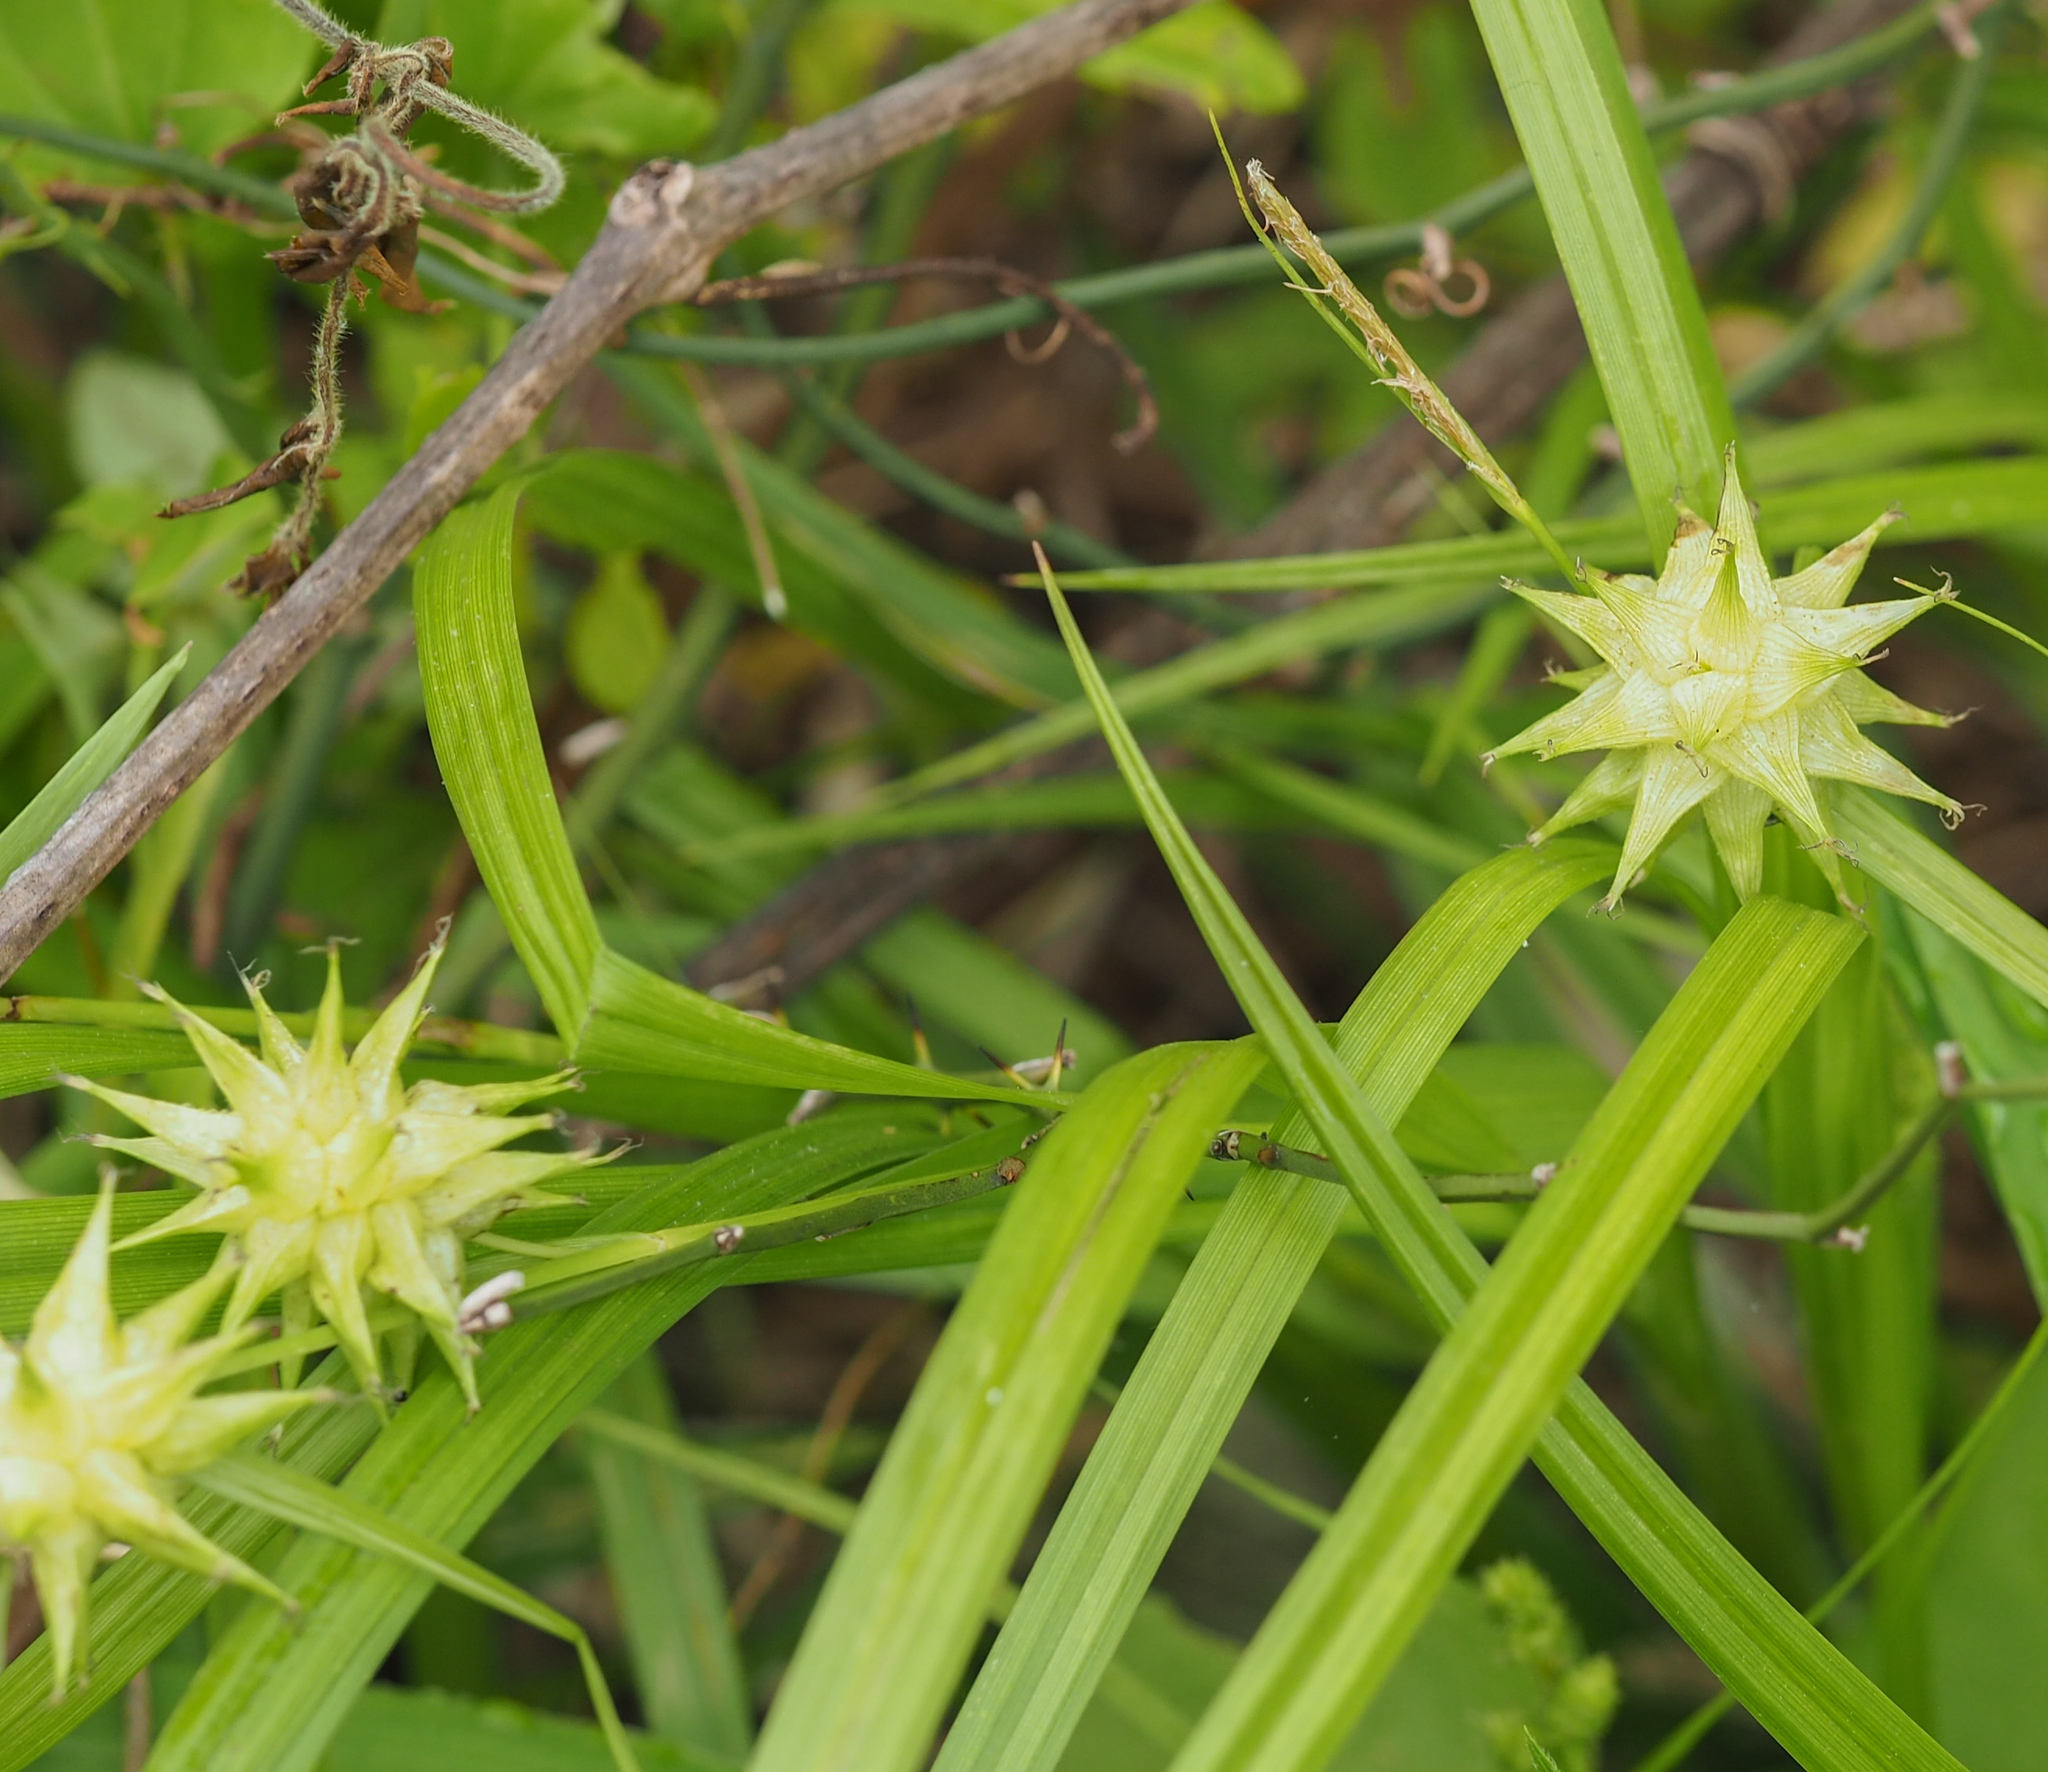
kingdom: Plantae
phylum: Tracheophyta
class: Liliopsida
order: Poales
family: Cyperaceae
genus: Carex
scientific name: Carex grayi
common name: Asa gray's sedge
